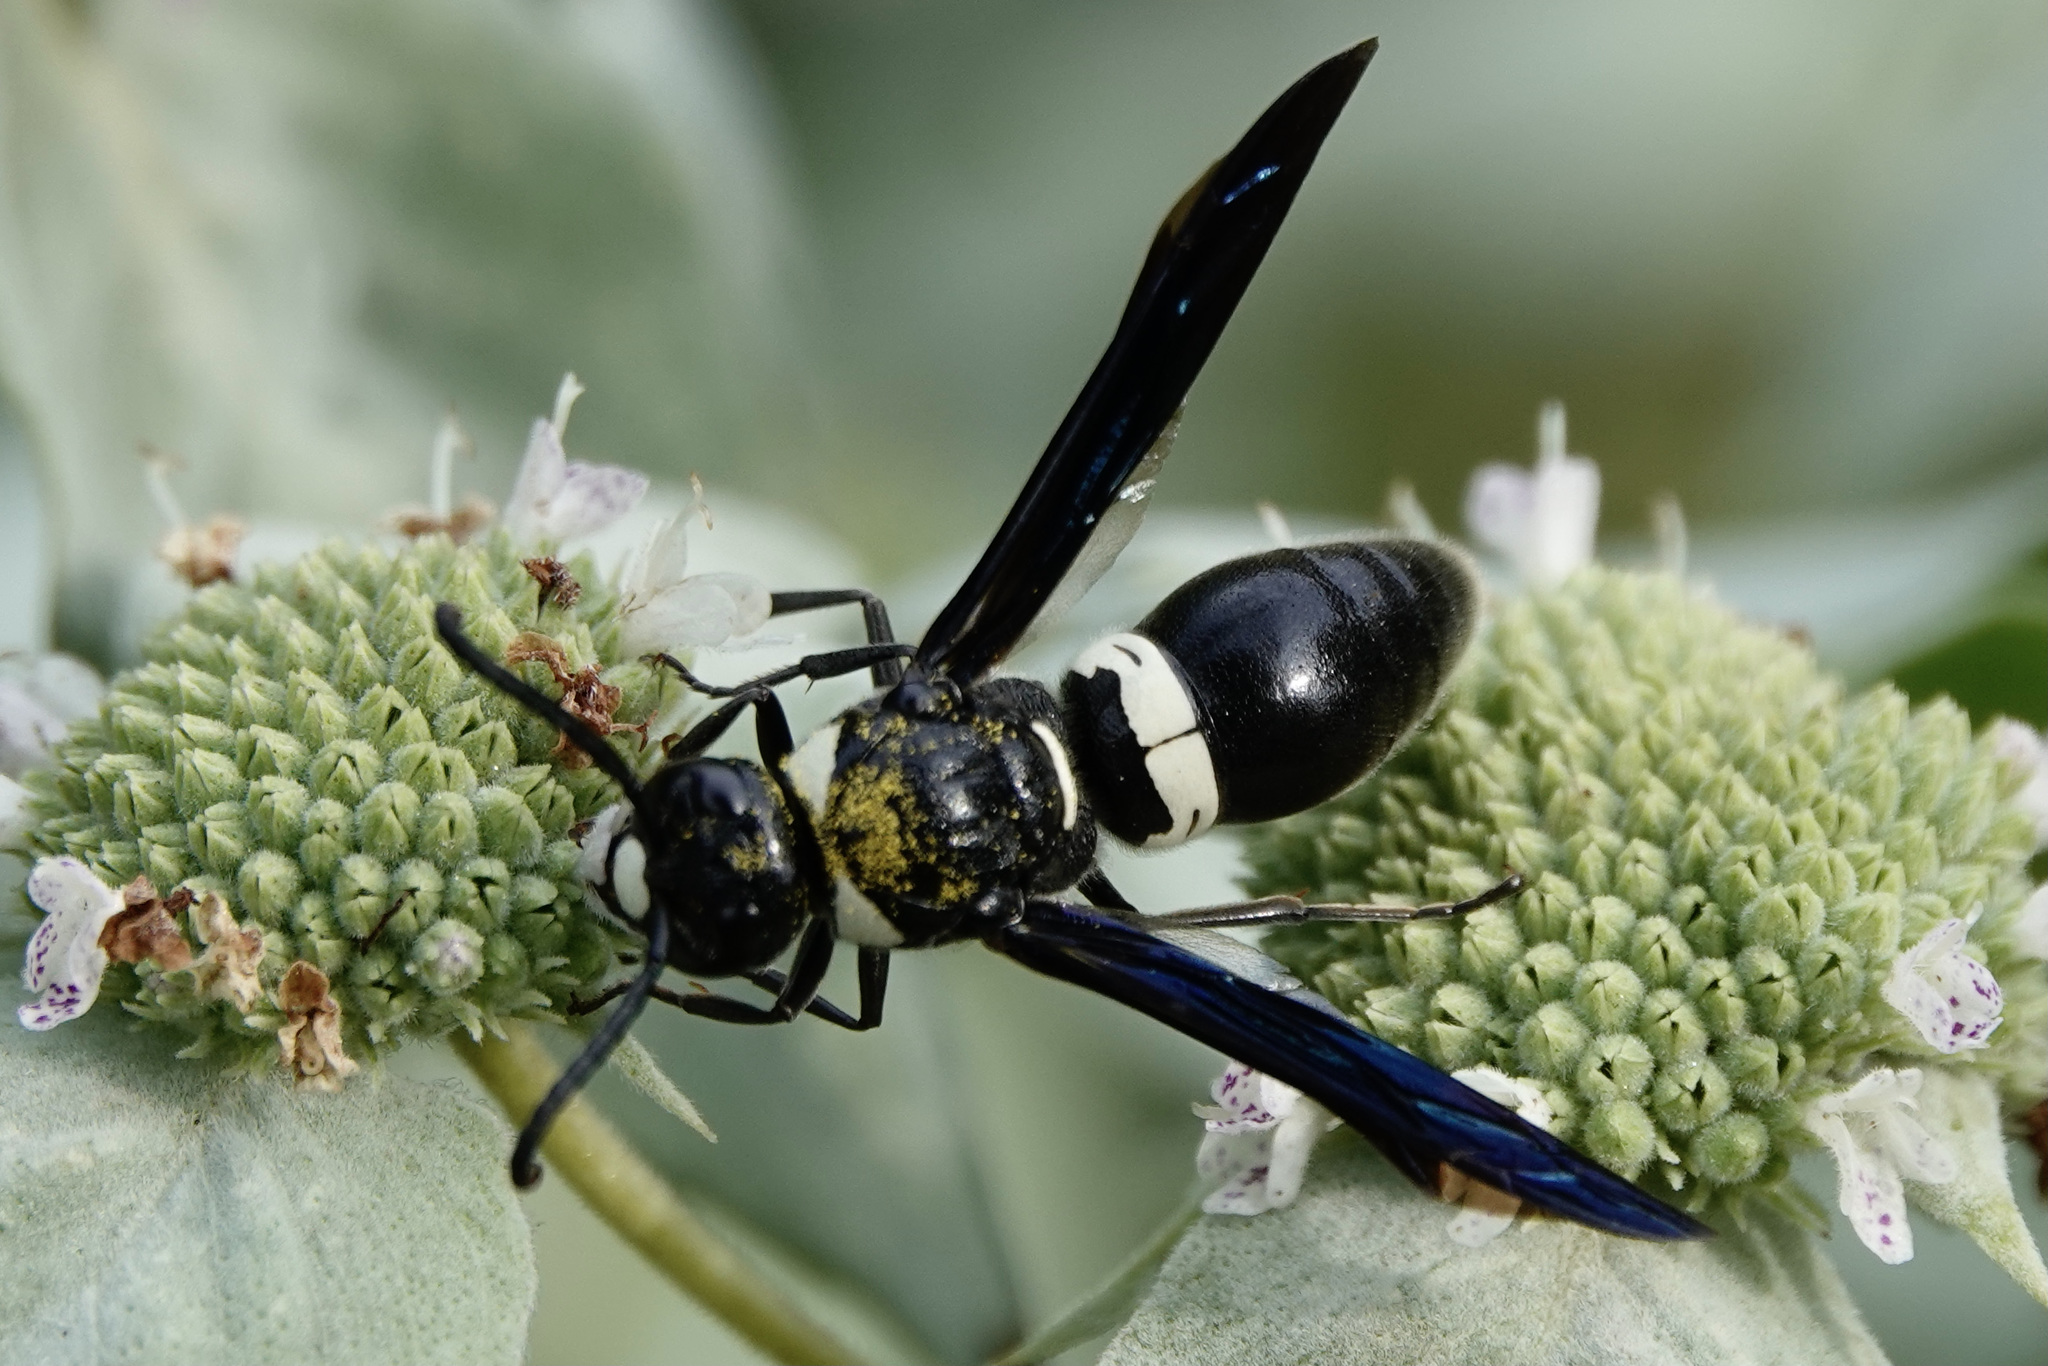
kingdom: Animalia
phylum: Arthropoda
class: Insecta
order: Hymenoptera
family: Eumenidae
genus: Monobia
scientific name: Monobia quadridens
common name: Four-toothed mason wasp
